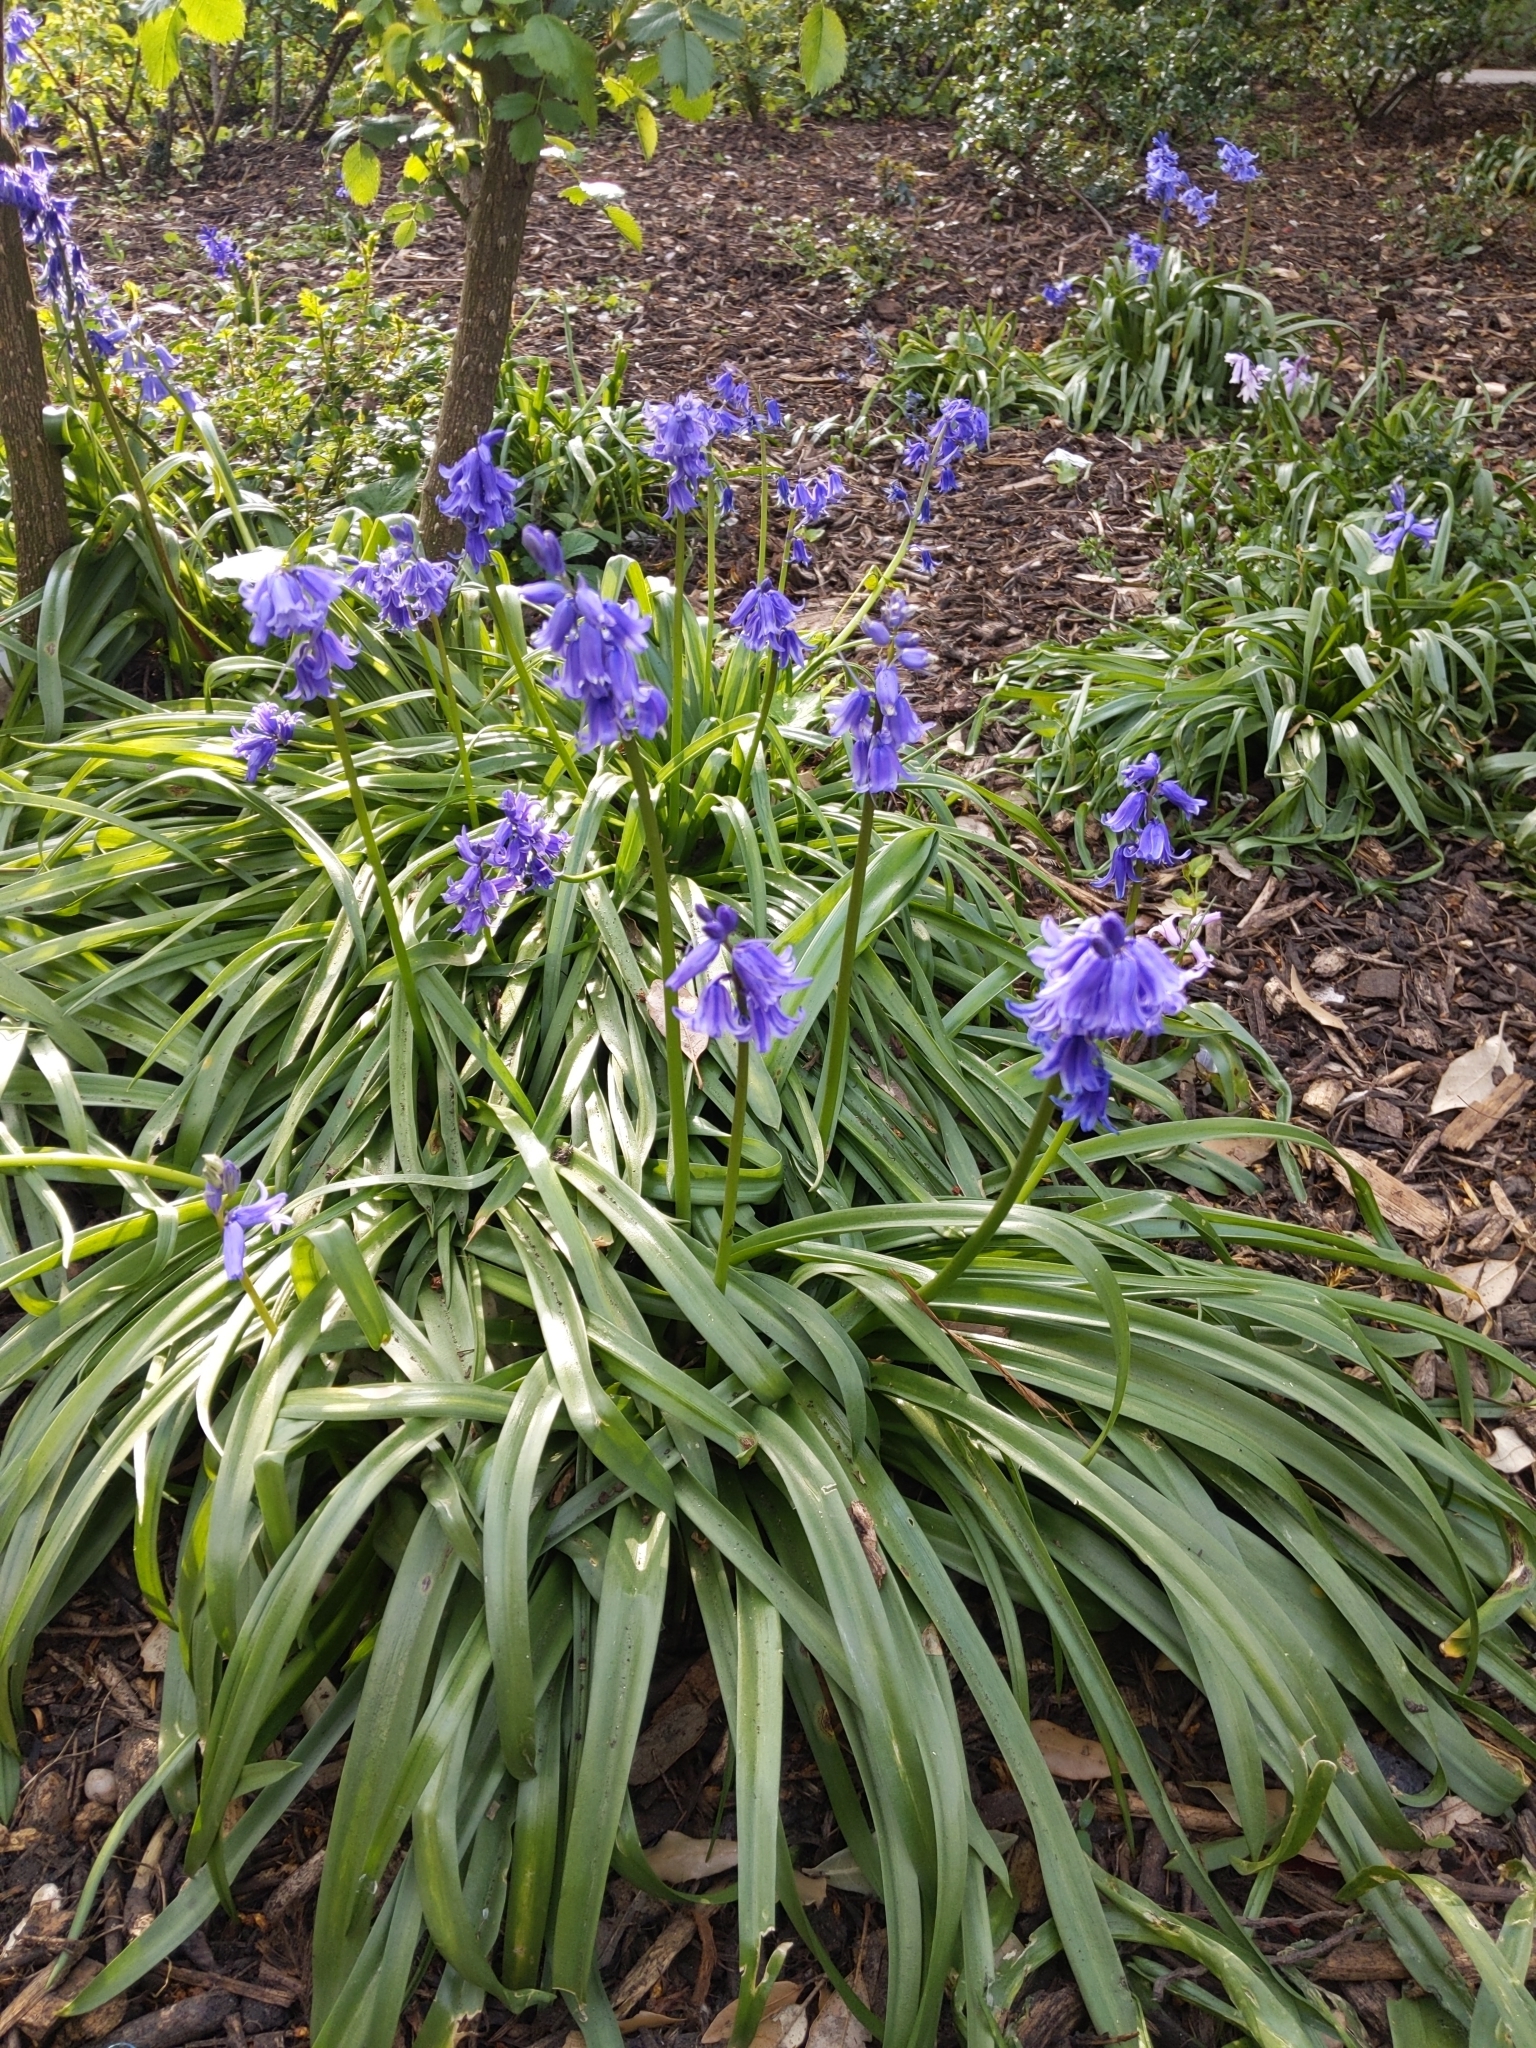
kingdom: Plantae
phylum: Tracheophyta
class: Liliopsida
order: Asparagales
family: Asparagaceae
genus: Hyacinthoides
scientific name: Hyacinthoides massartiana
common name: Hyacinthoides
